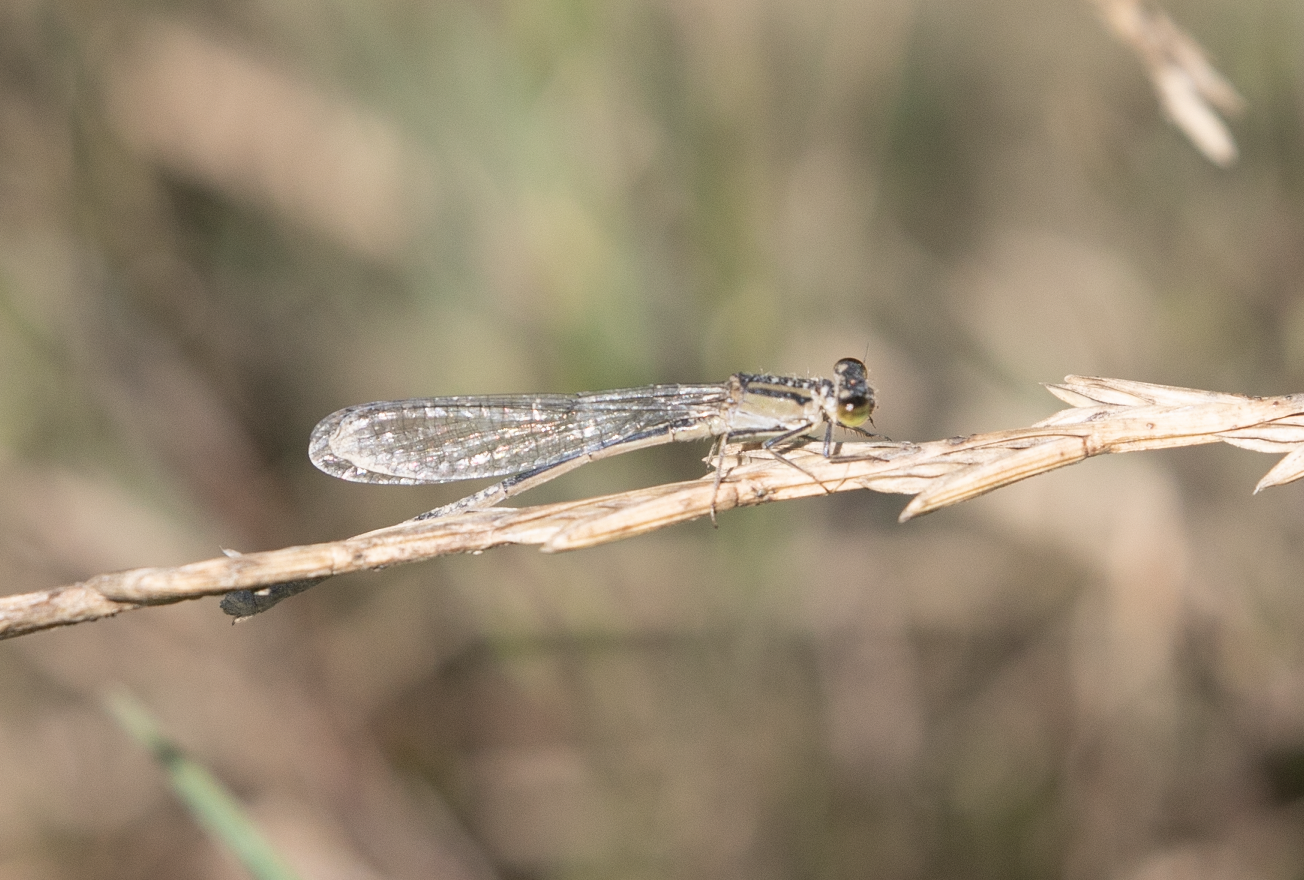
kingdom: Animalia
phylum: Arthropoda
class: Insecta
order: Odonata
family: Coenagrionidae
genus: Ischnura
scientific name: Ischnura elegans
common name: Blue-tailed damselfly
